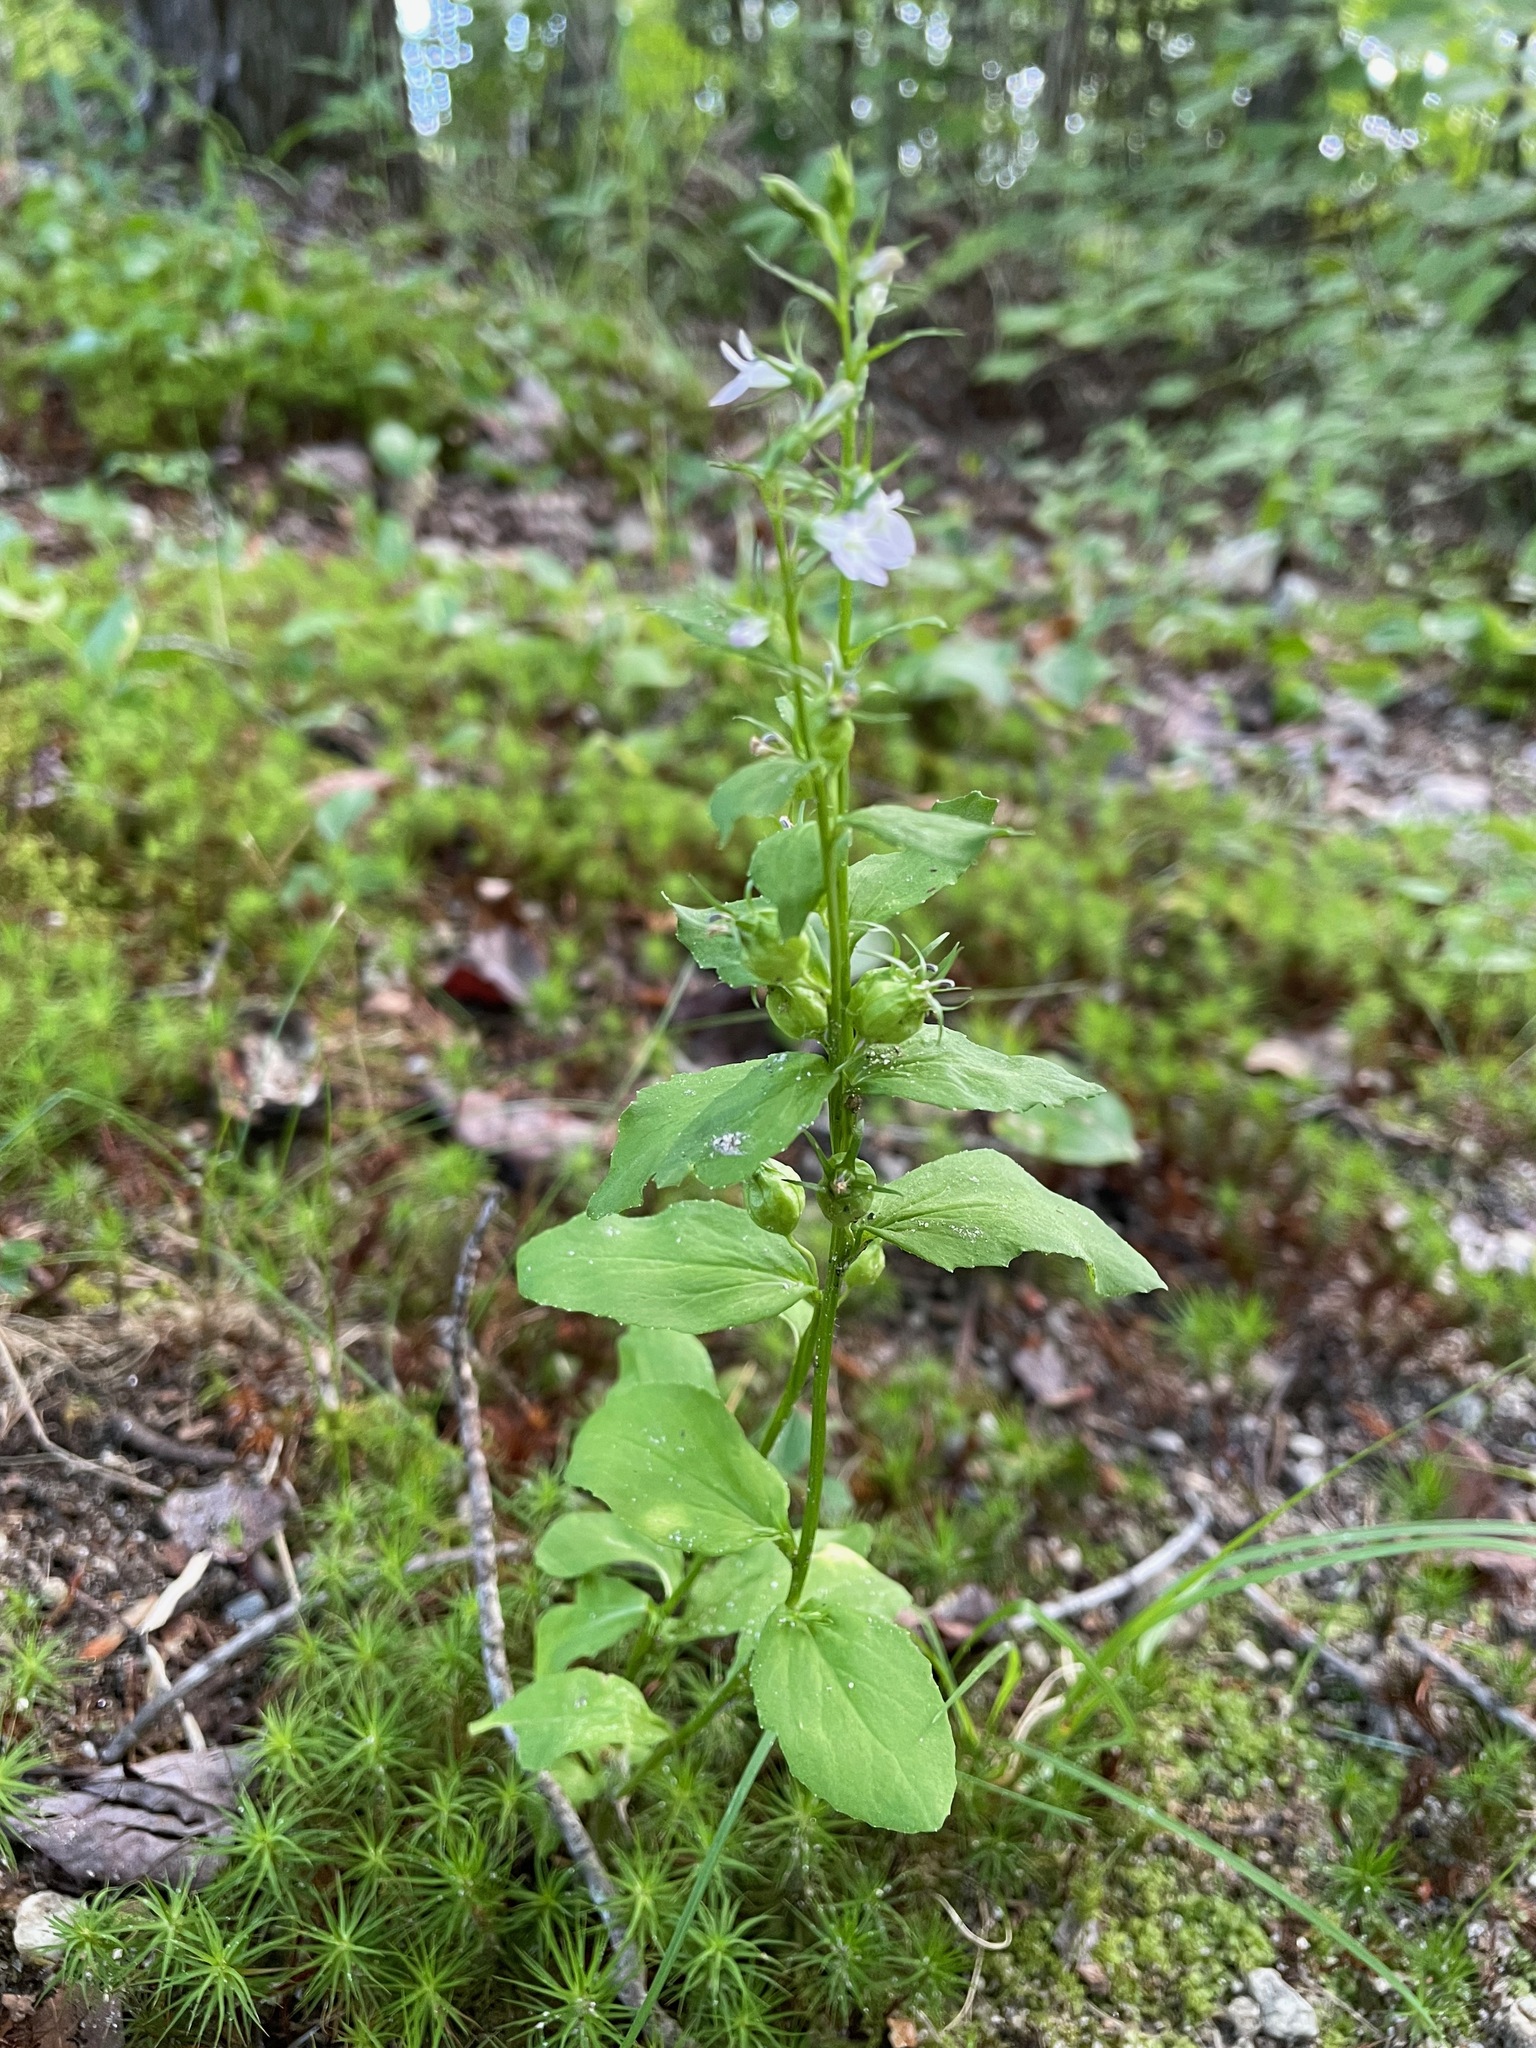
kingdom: Plantae
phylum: Tracheophyta
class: Magnoliopsida
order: Asterales
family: Campanulaceae
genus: Lobelia
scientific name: Lobelia inflata
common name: Indian tobacco
